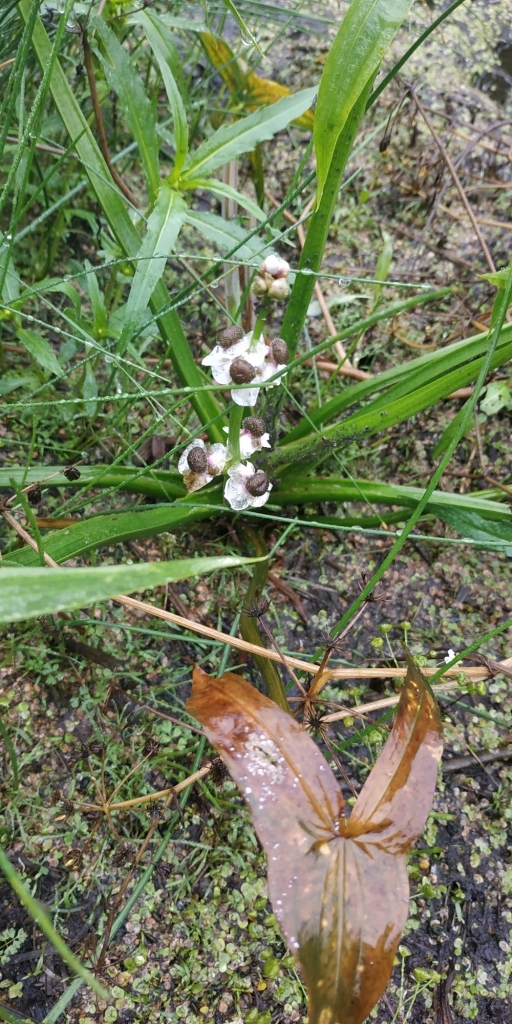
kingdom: Plantae
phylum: Tracheophyta
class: Liliopsida
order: Alismatales
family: Alismataceae
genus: Sagittaria
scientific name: Sagittaria sagittifolia
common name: Arrowhead
